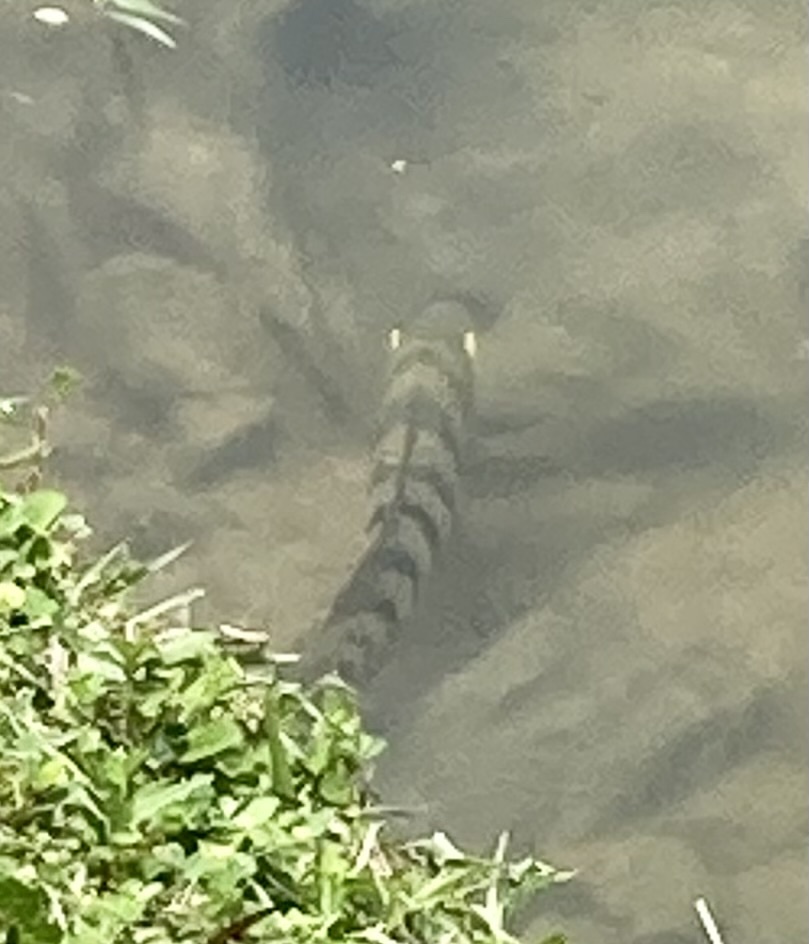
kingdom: Animalia
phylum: Chordata
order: Perciformes
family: Cichlidae
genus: Mayaheros
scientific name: Mayaheros urophthalmus
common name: Mayan cichlid
